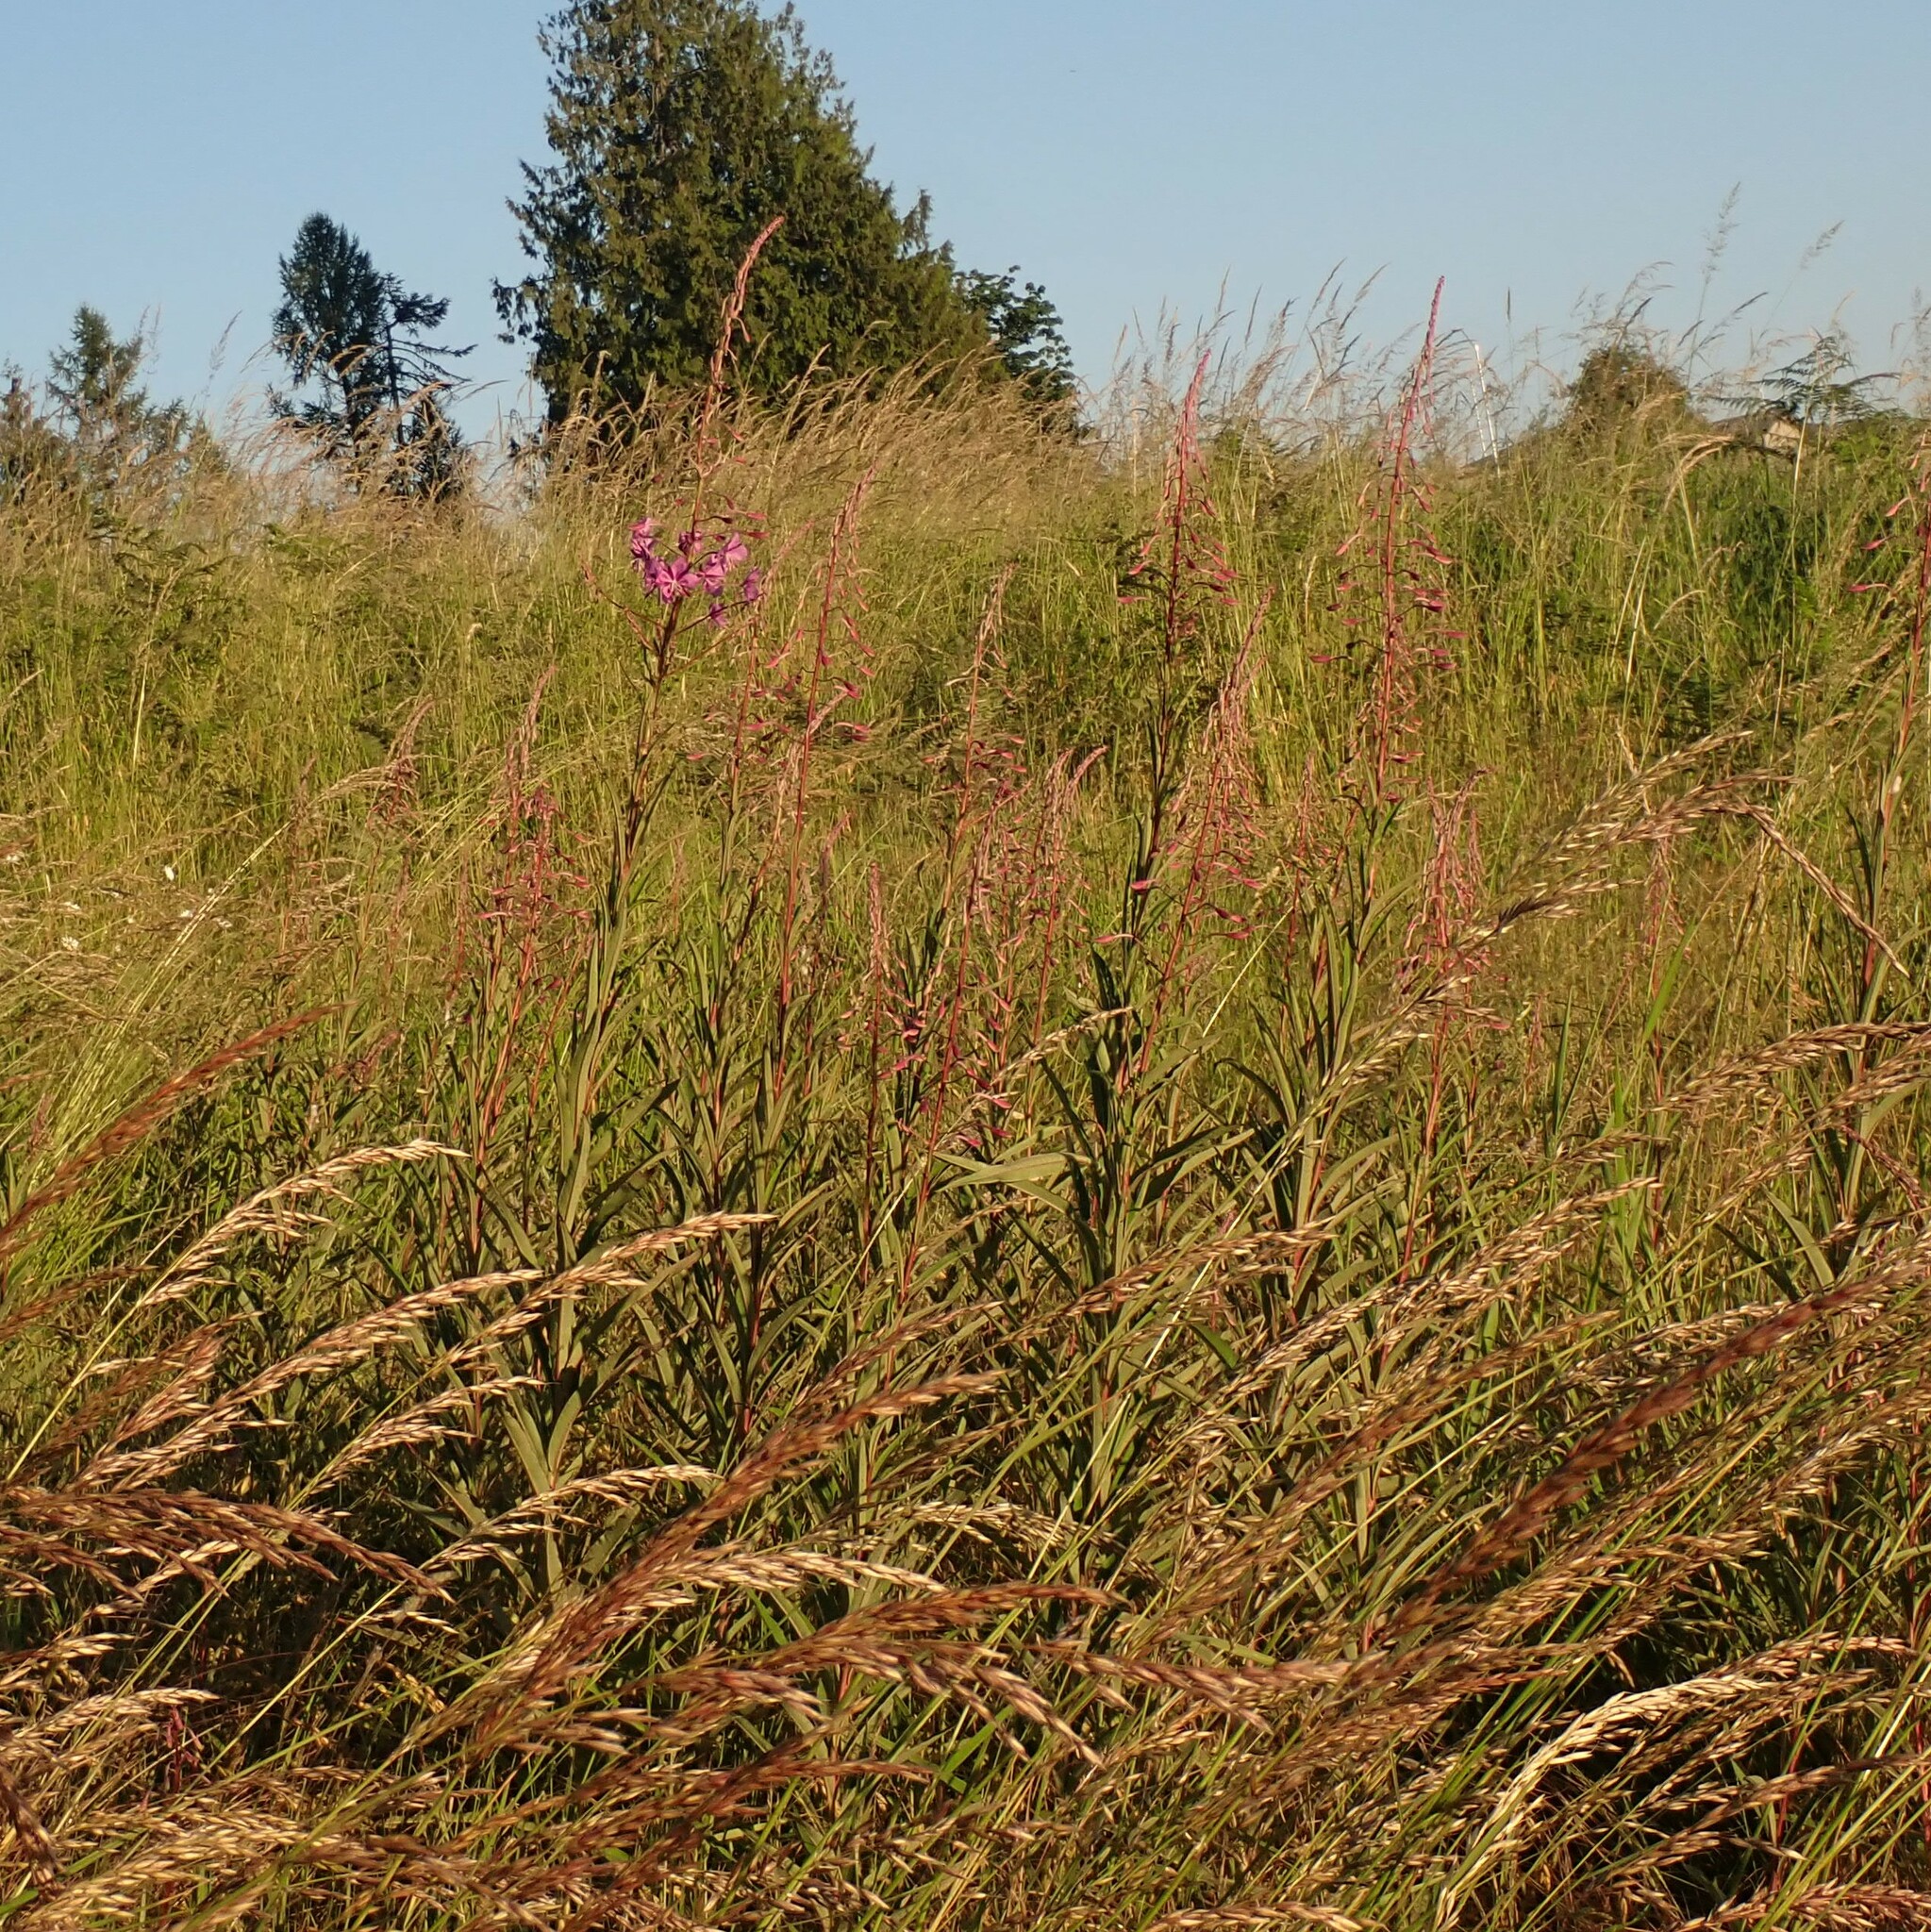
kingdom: Plantae
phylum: Tracheophyta
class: Magnoliopsida
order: Myrtales
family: Onagraceae
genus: Chamaenerion
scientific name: Chamaenerion angustifolium
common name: Fireweed
